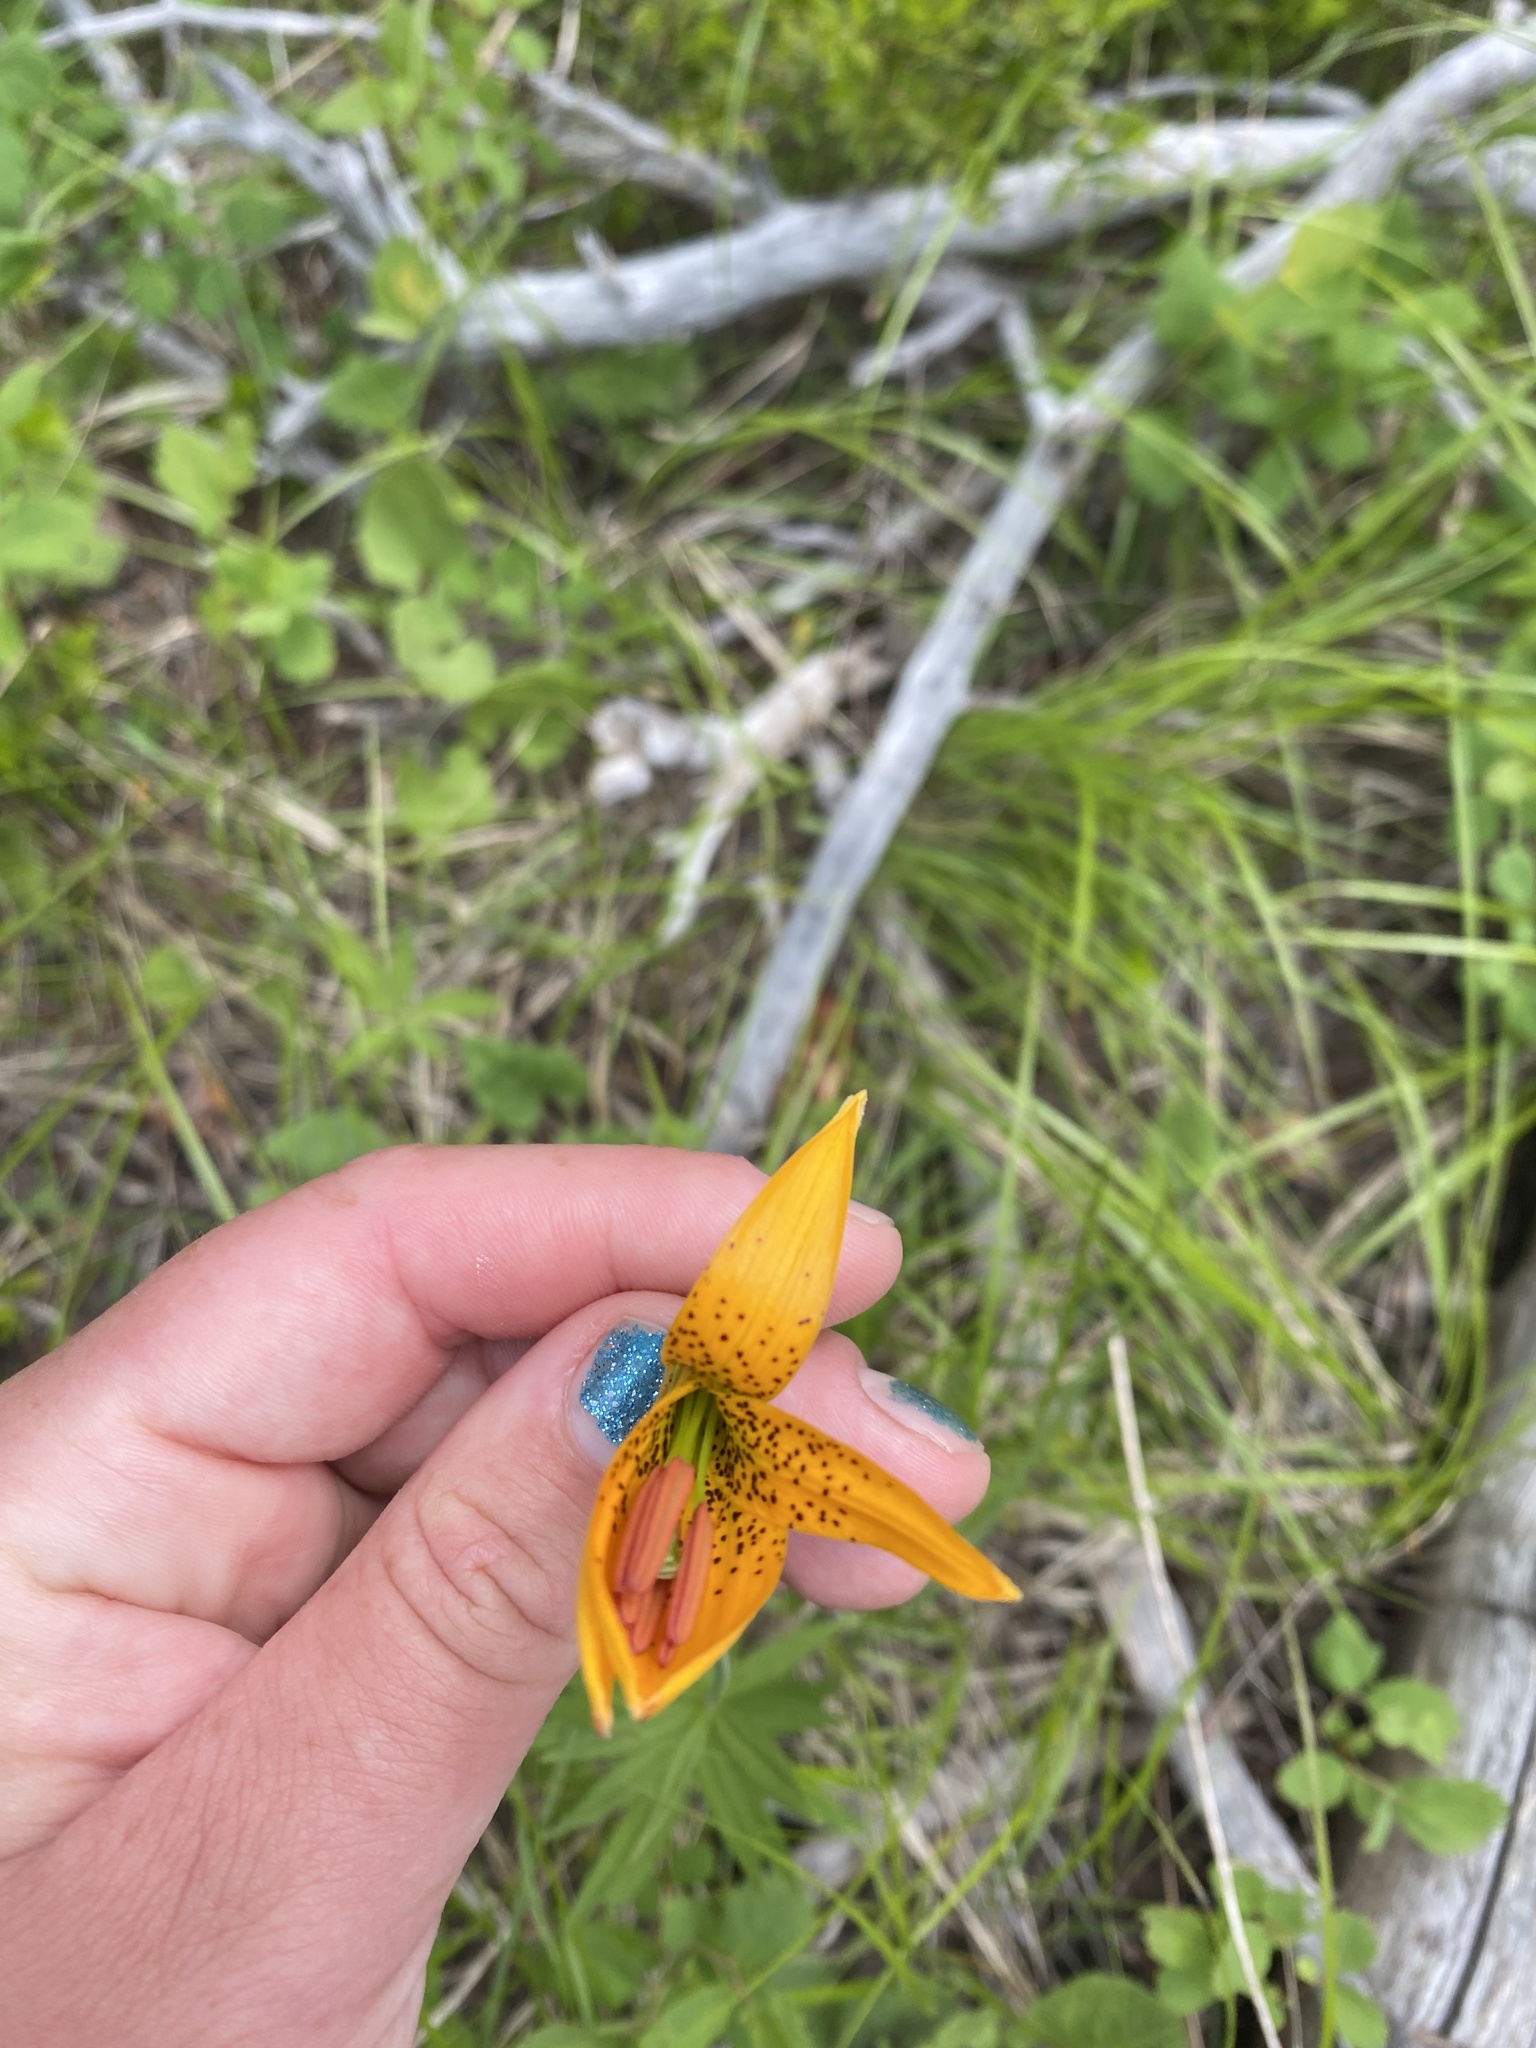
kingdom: Plantae
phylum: Tracheophyta
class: Liliopsida
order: Liliales
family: Liliaceae
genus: Lilium
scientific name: Lilium columbianum
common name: Columbia lily
